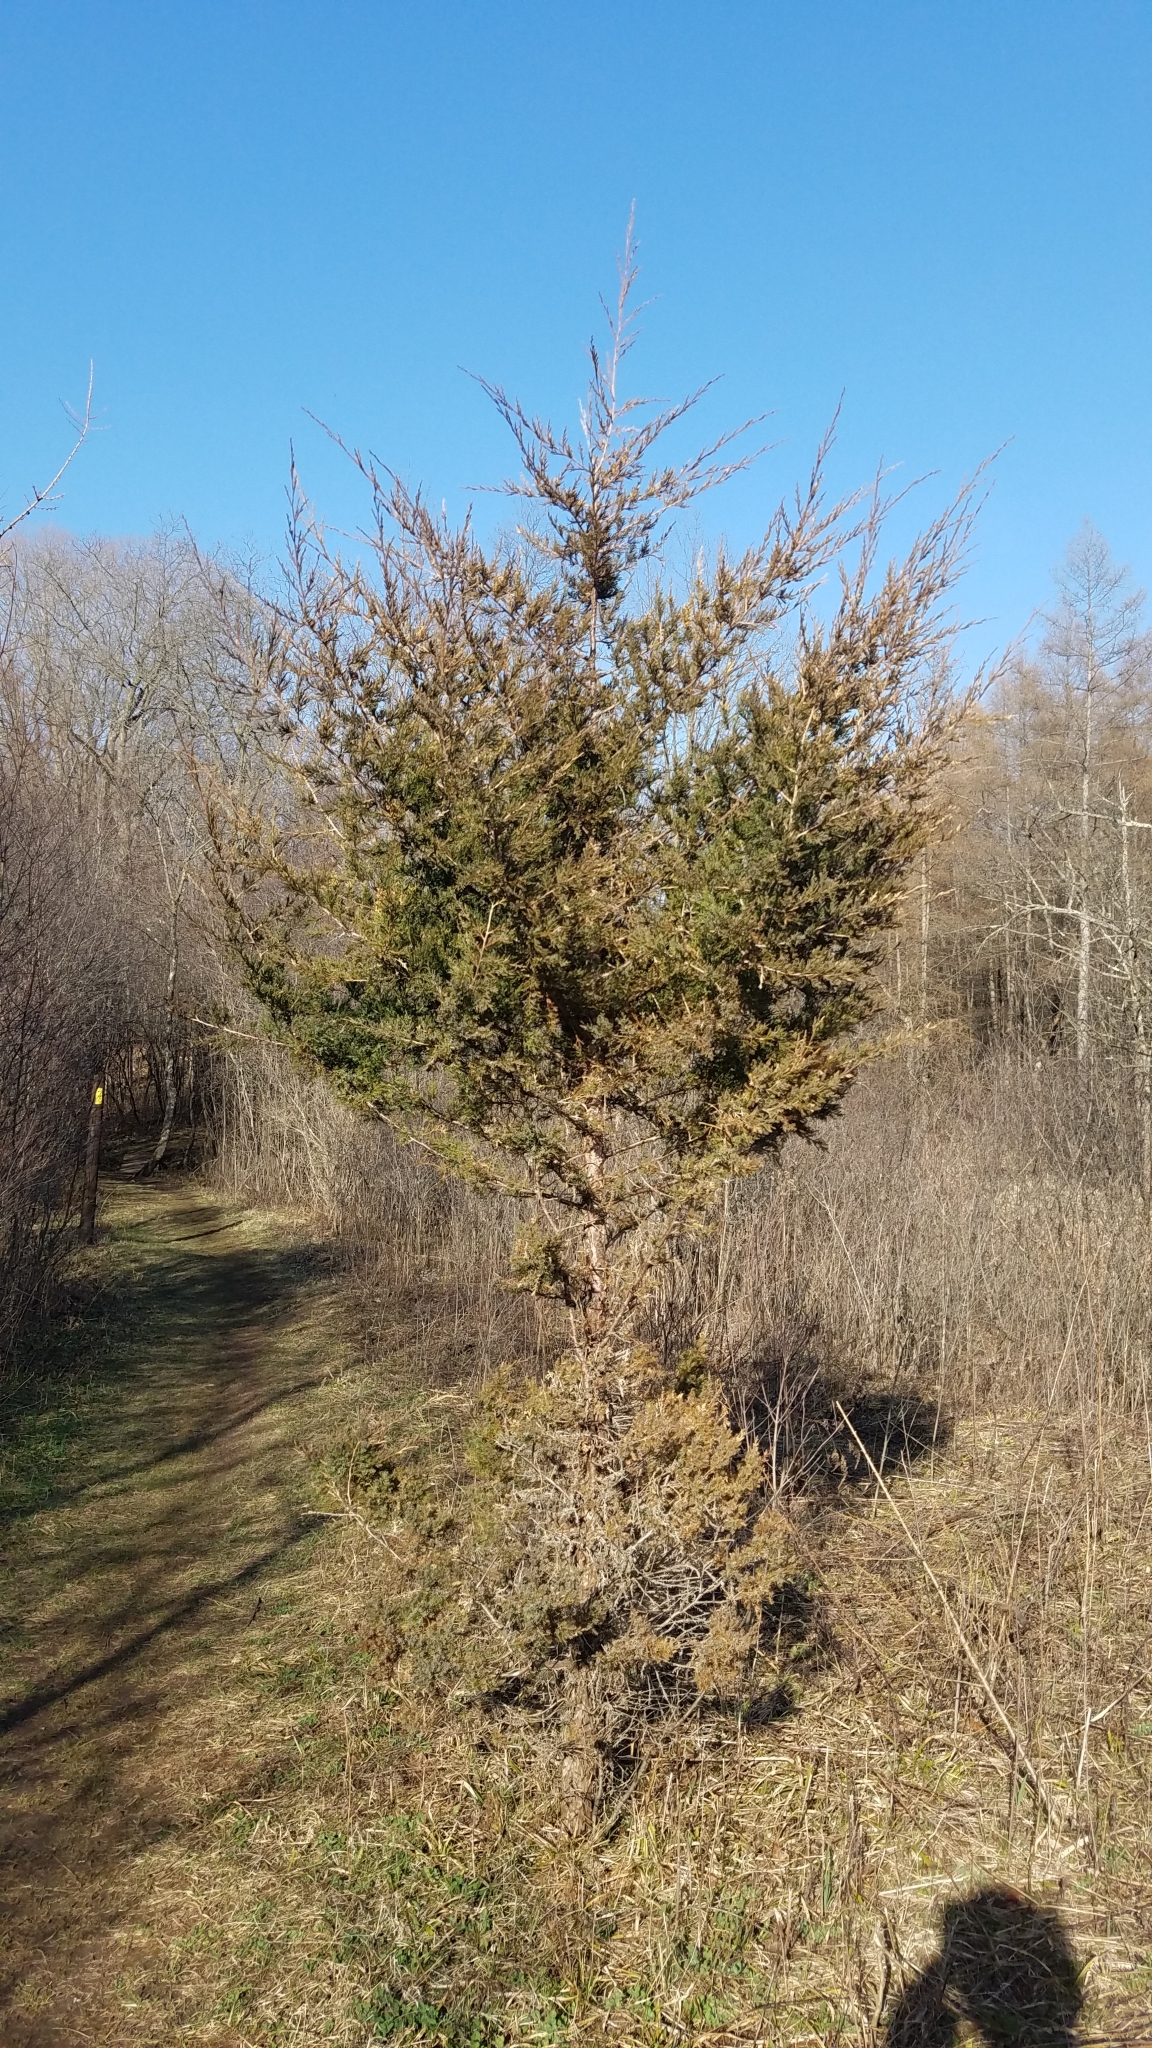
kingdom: Plantae
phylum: Tracheophyta
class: Pinopsida
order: Pinales
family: Cupressaceae
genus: Juniperus
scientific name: Juniperus virginiana
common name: Red juniper
